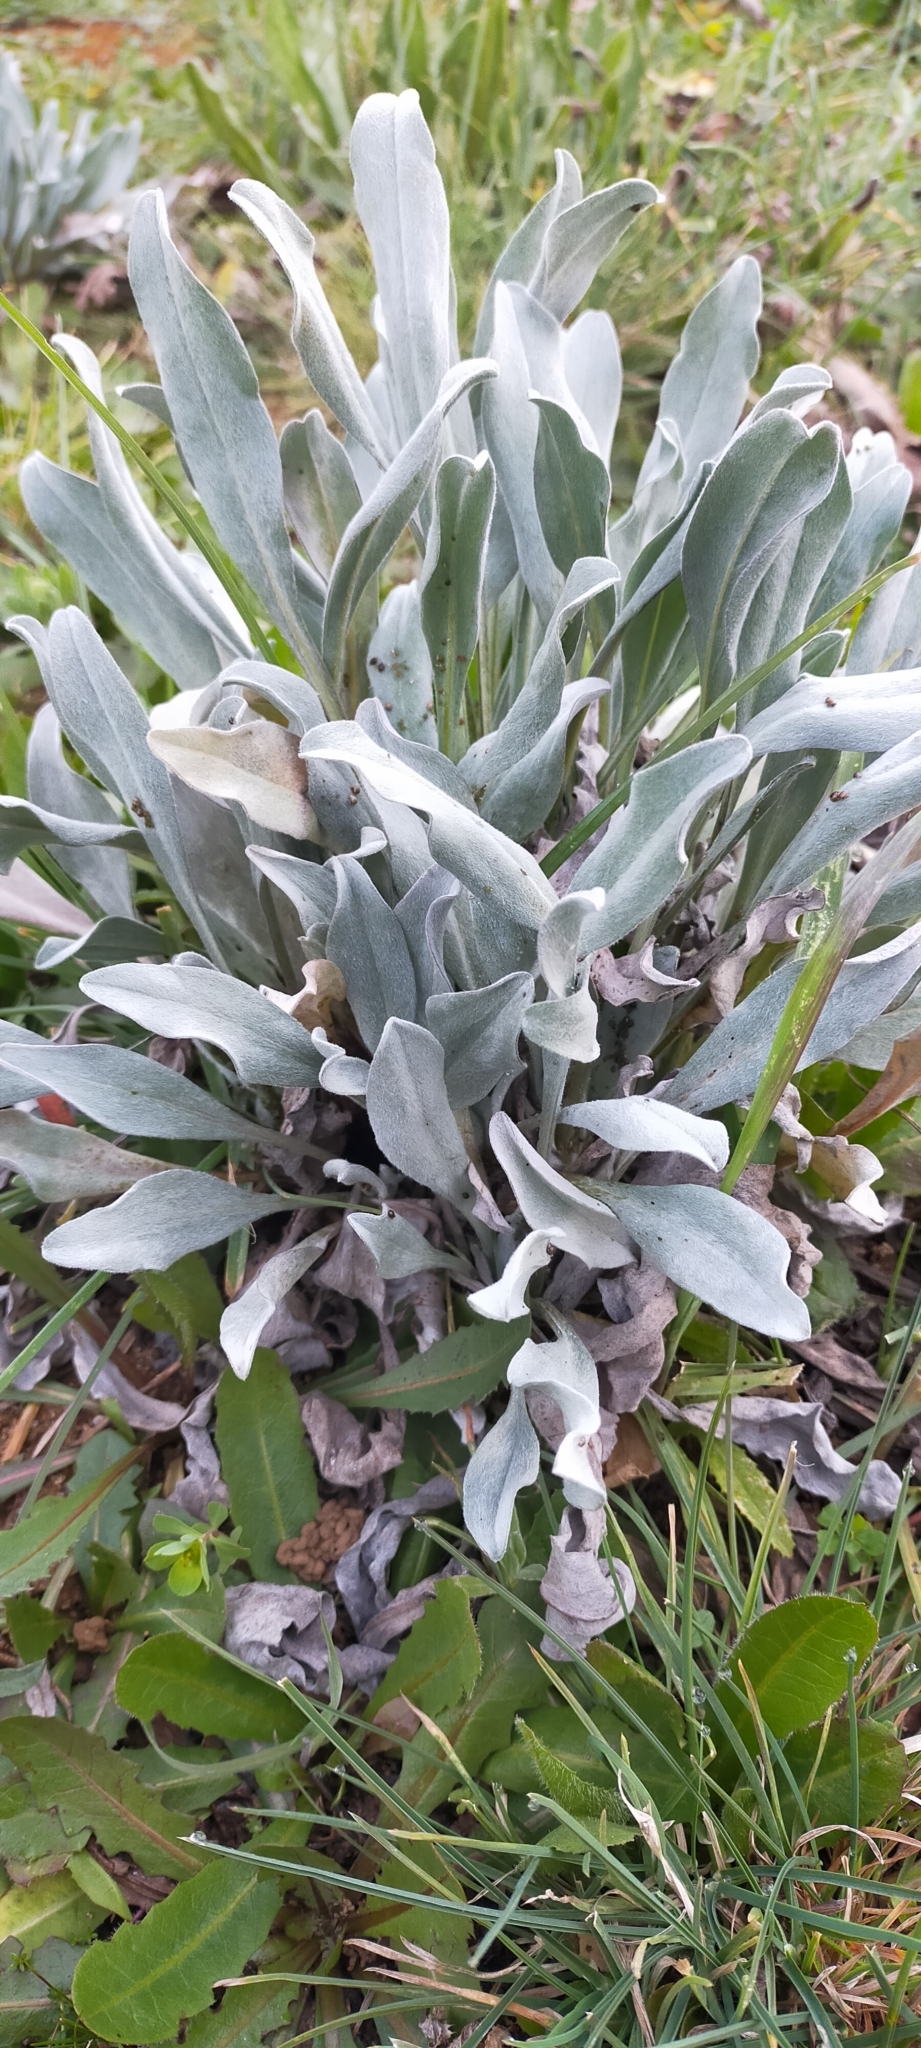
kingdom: Plantae
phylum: Tracheophyta
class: Magnoliopsida
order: Boraginales
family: Boraginaceae
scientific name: Boraginaceae
